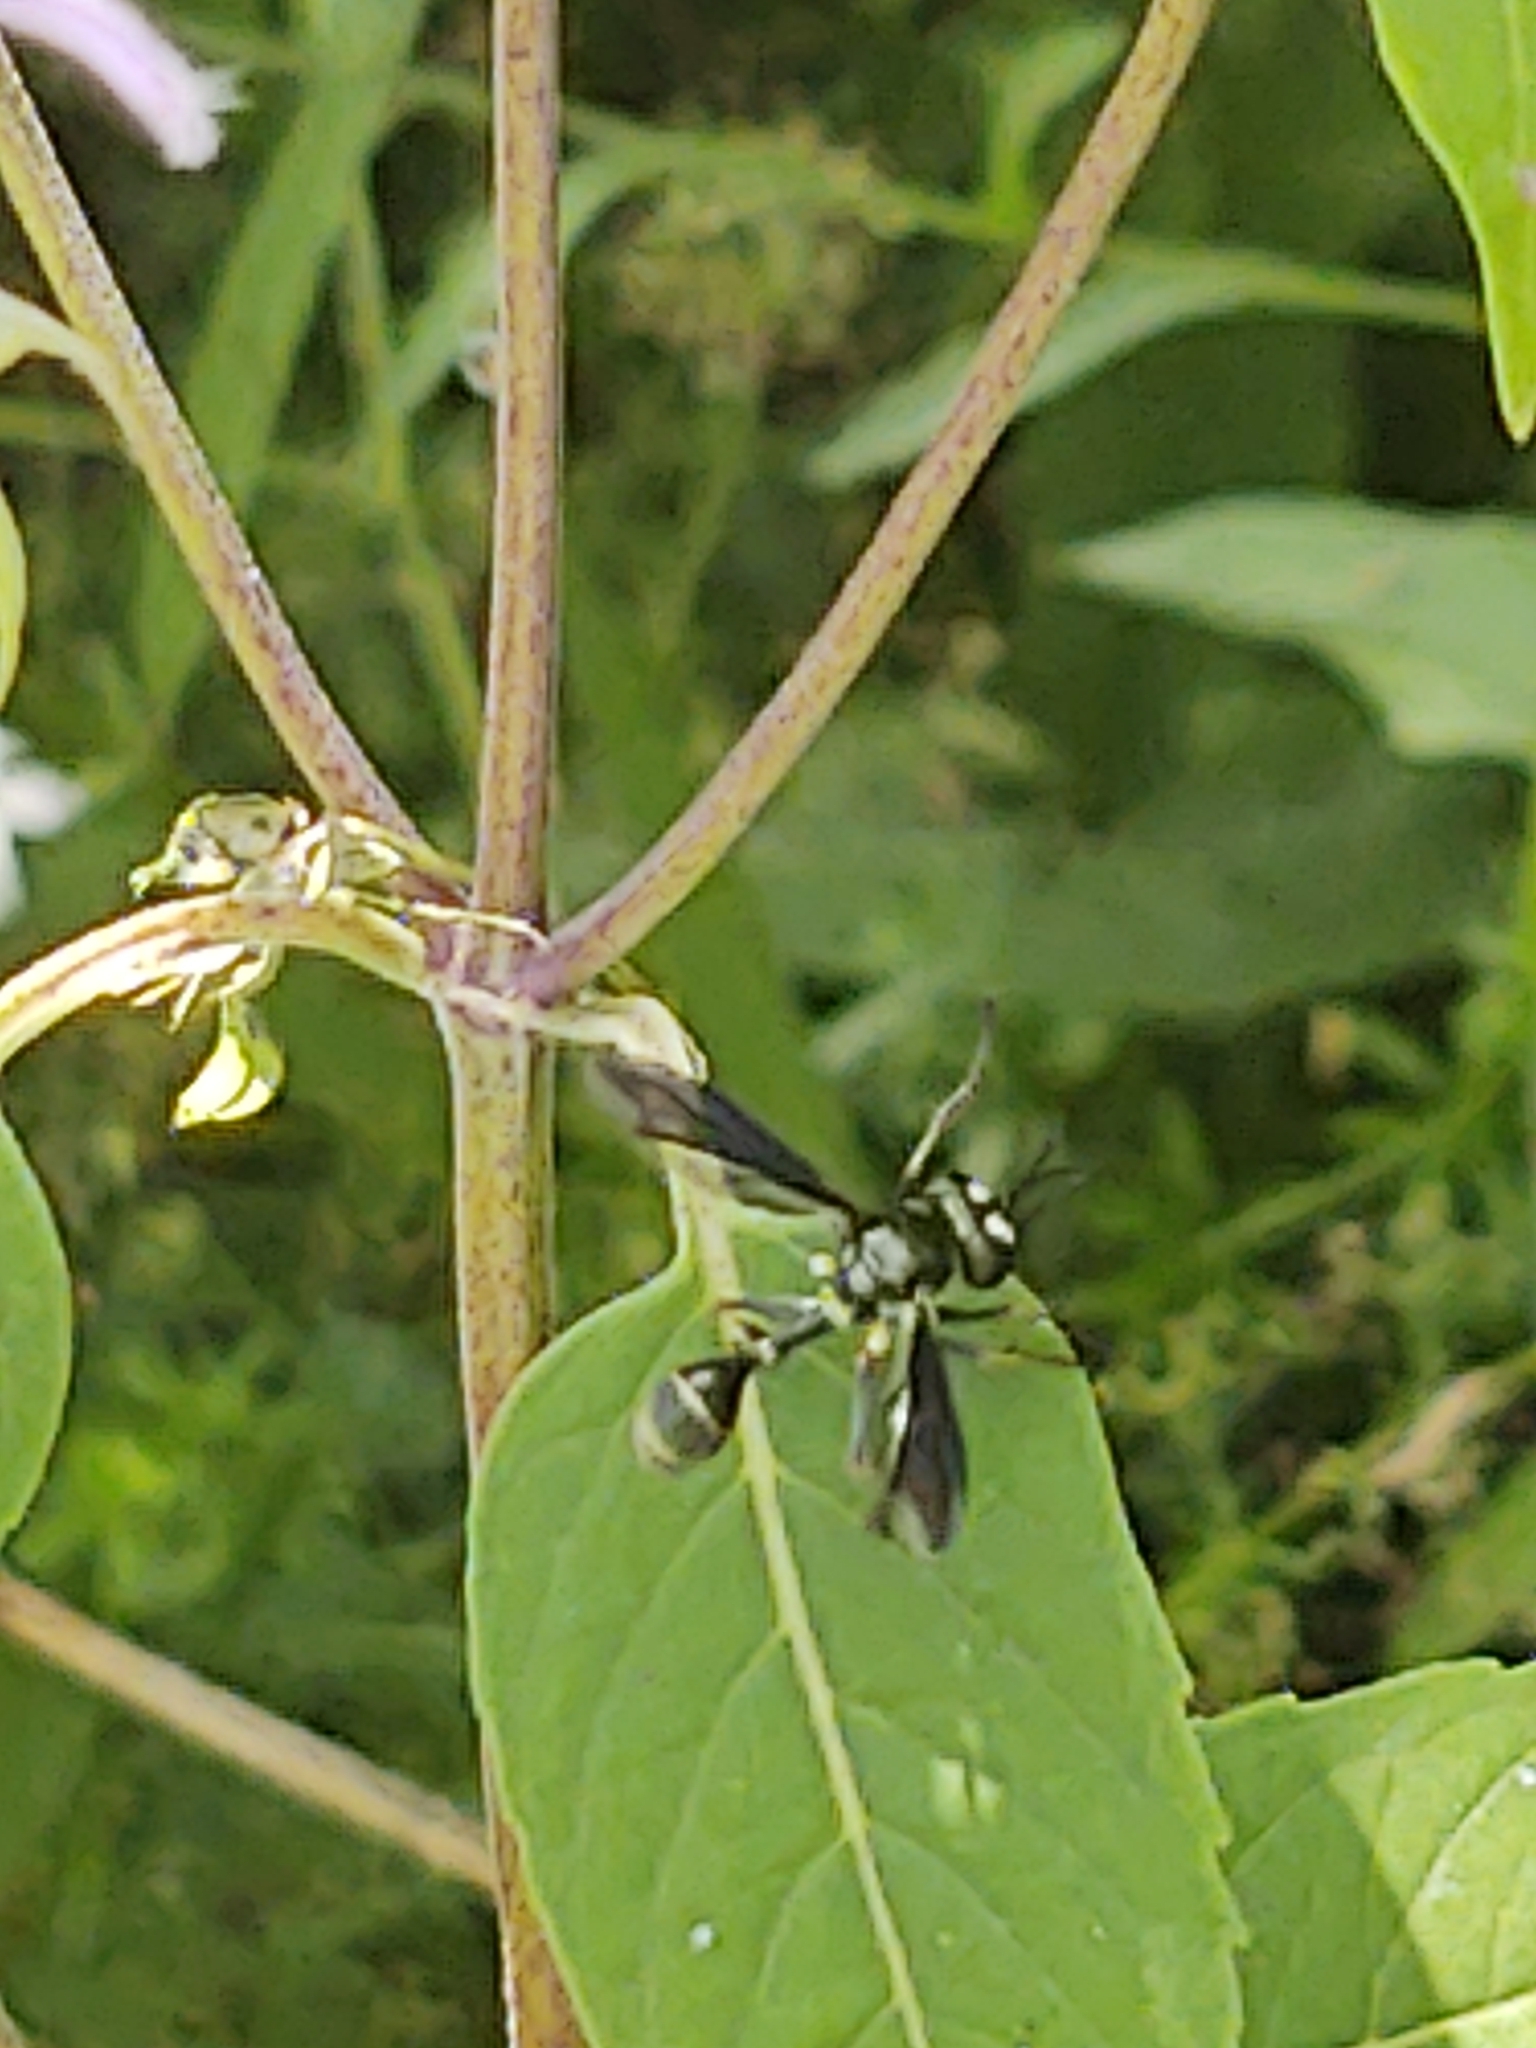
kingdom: Animalia
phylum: Arthropoda
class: Insecta
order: Diptera
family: Conopidae
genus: Physocephala
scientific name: Physocephala tibialis
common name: Common eastern physocephala
